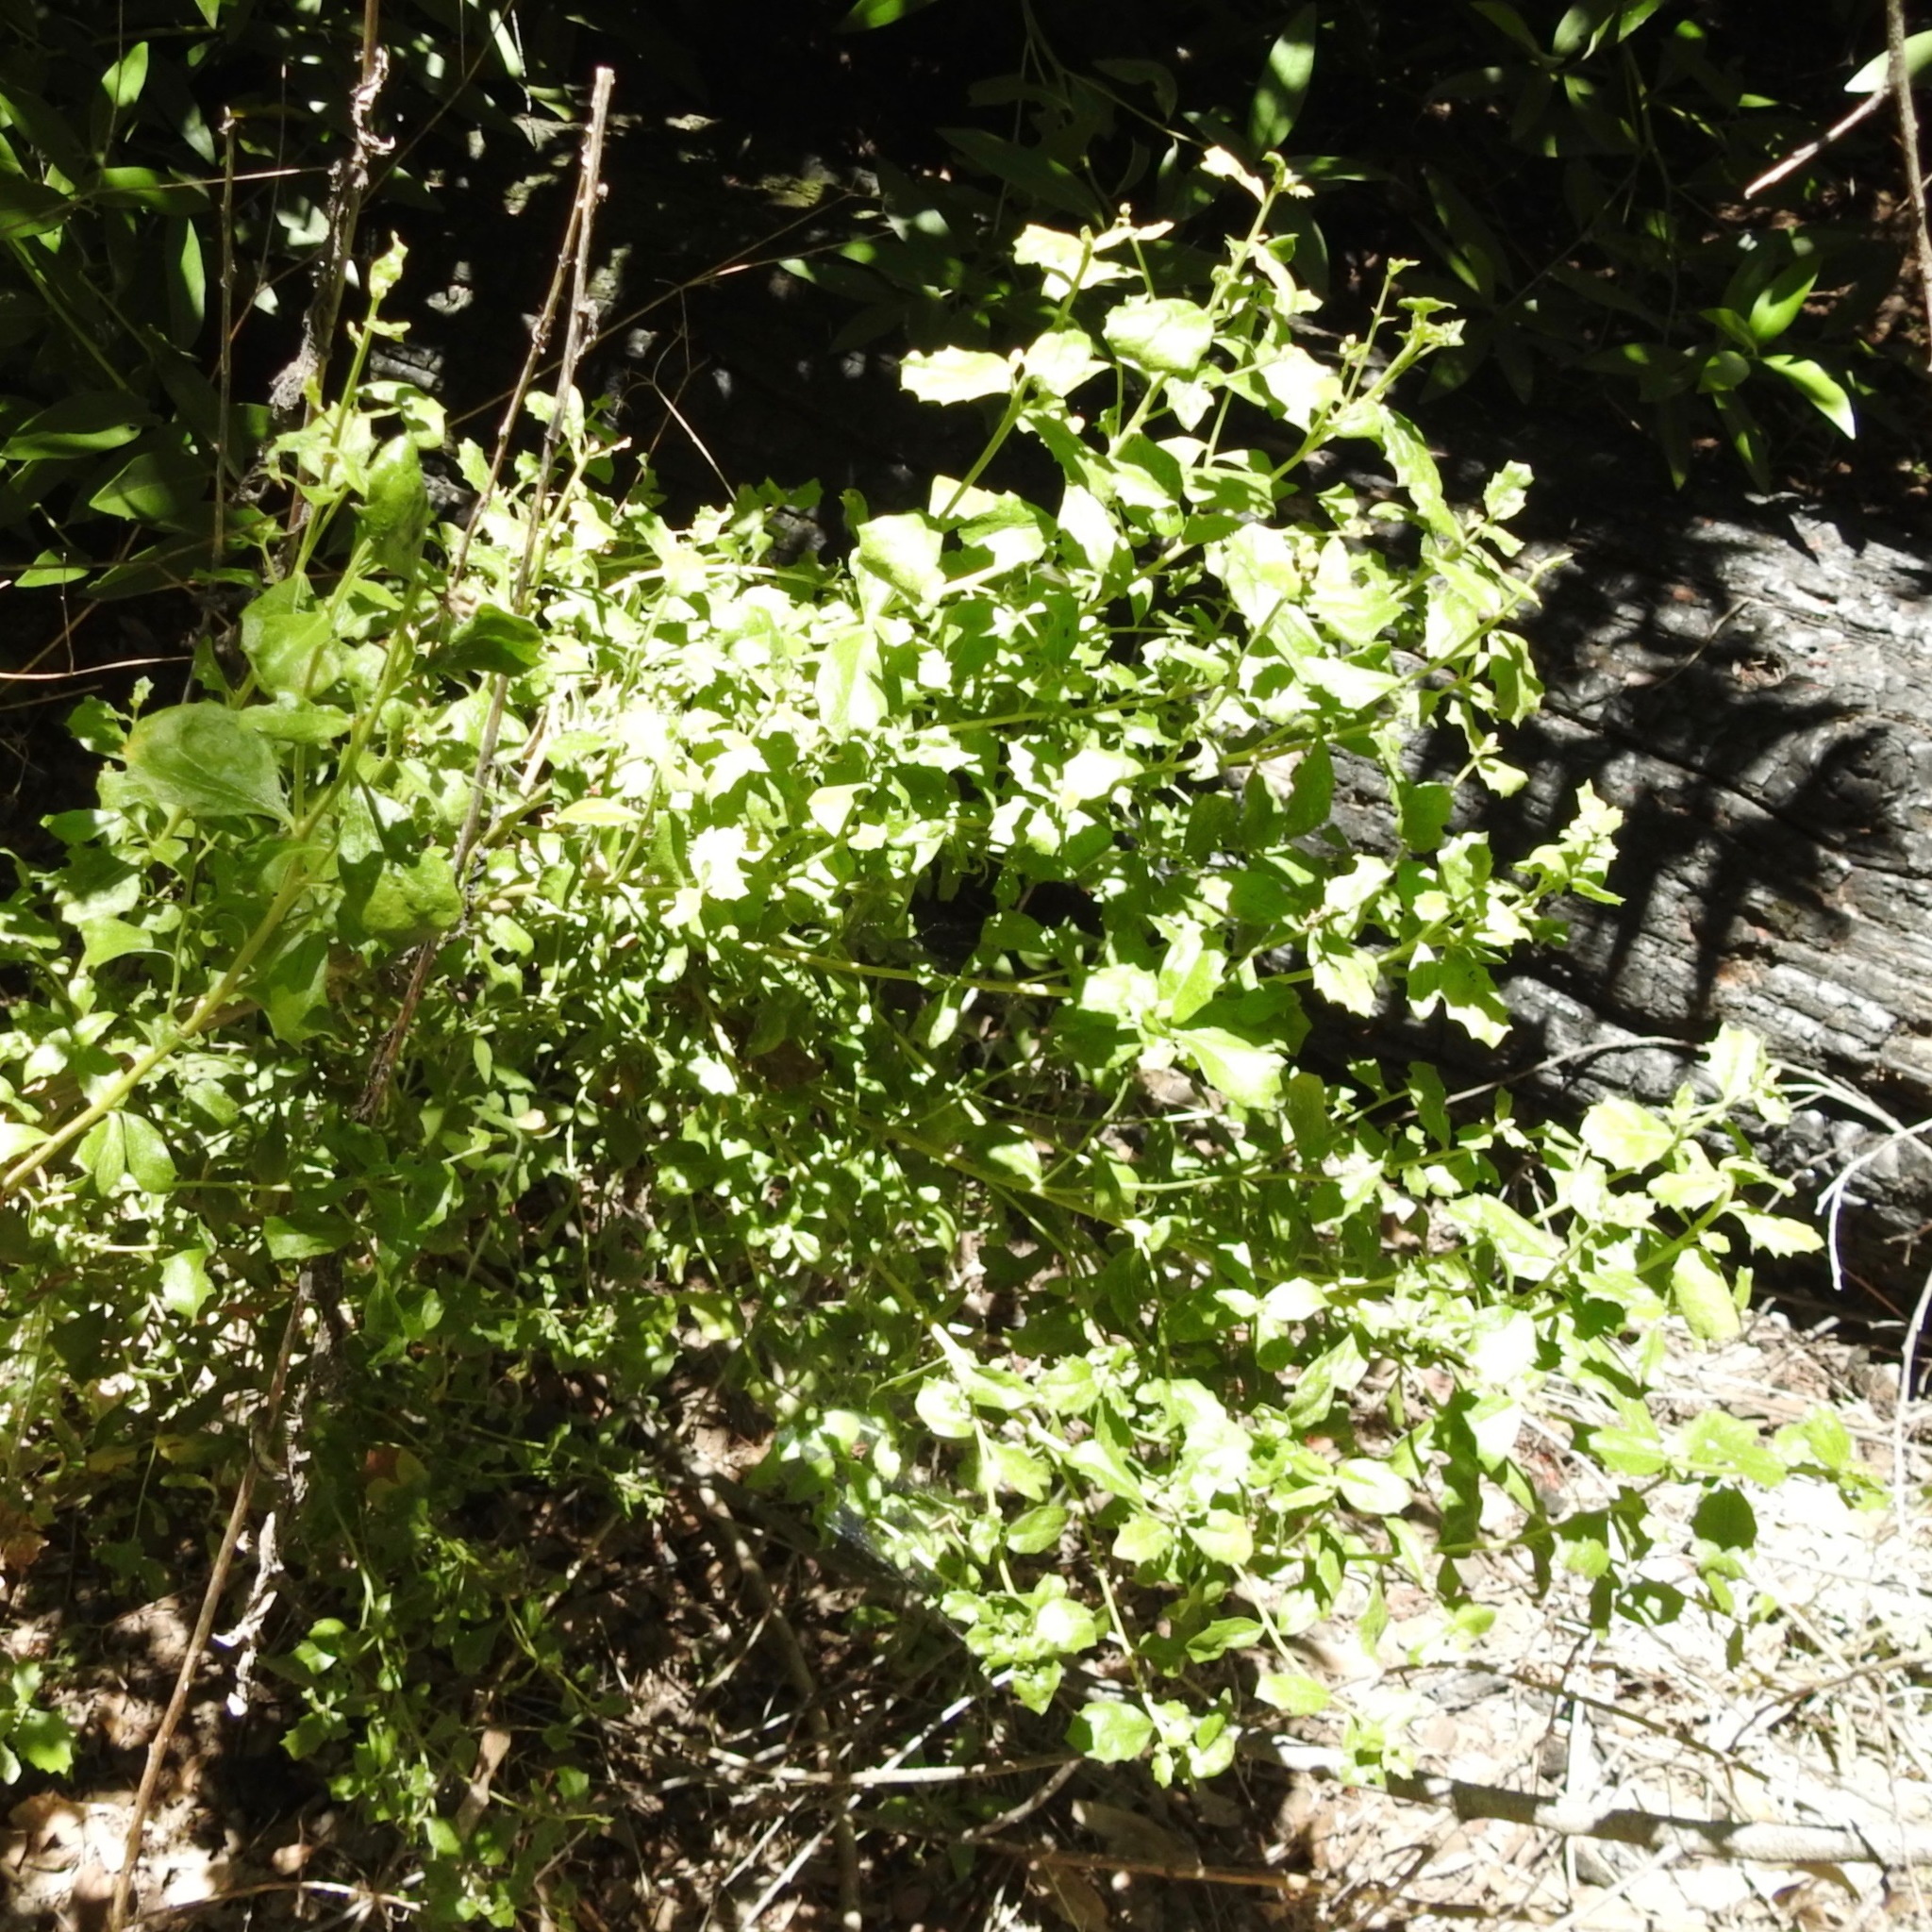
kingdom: Plantae
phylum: Tracheophyta
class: Magnoliopsida
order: Asterales
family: Asteraceae
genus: Baccharis
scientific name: Baccharis pilularis
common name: Coyotebrush
